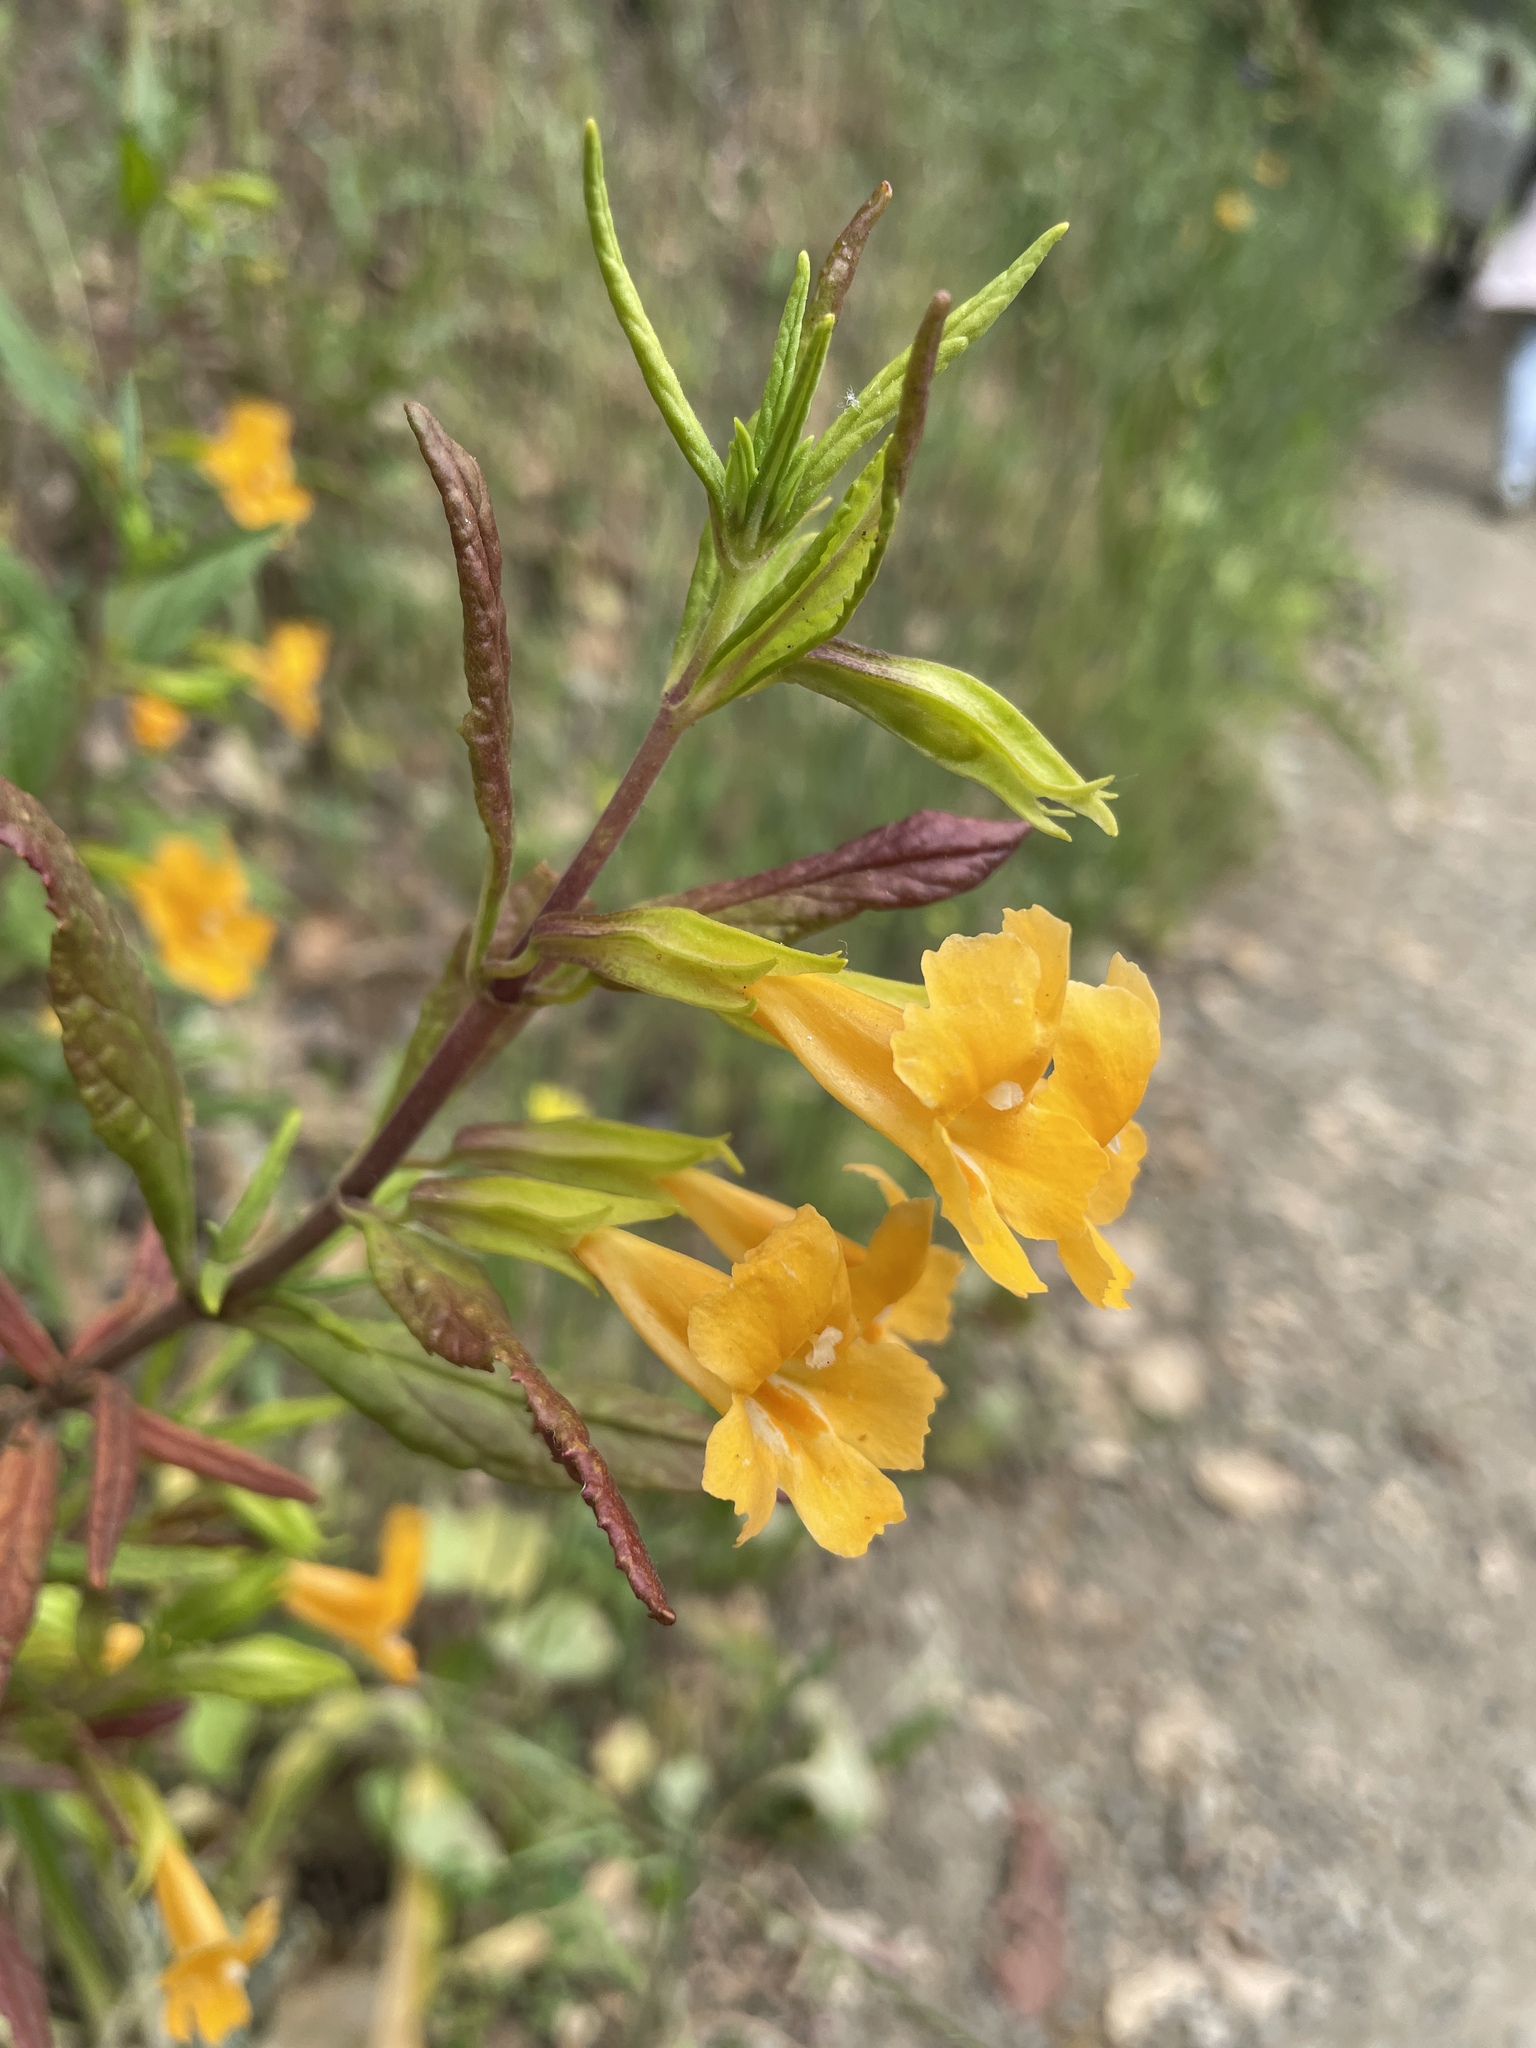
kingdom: Plantae
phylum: Tracheophyta
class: Magnoliopsida
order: Lamiales
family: Phrymaceae
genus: Diplacus
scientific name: Diplacus aurantiacus
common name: Bush monkey-flower
